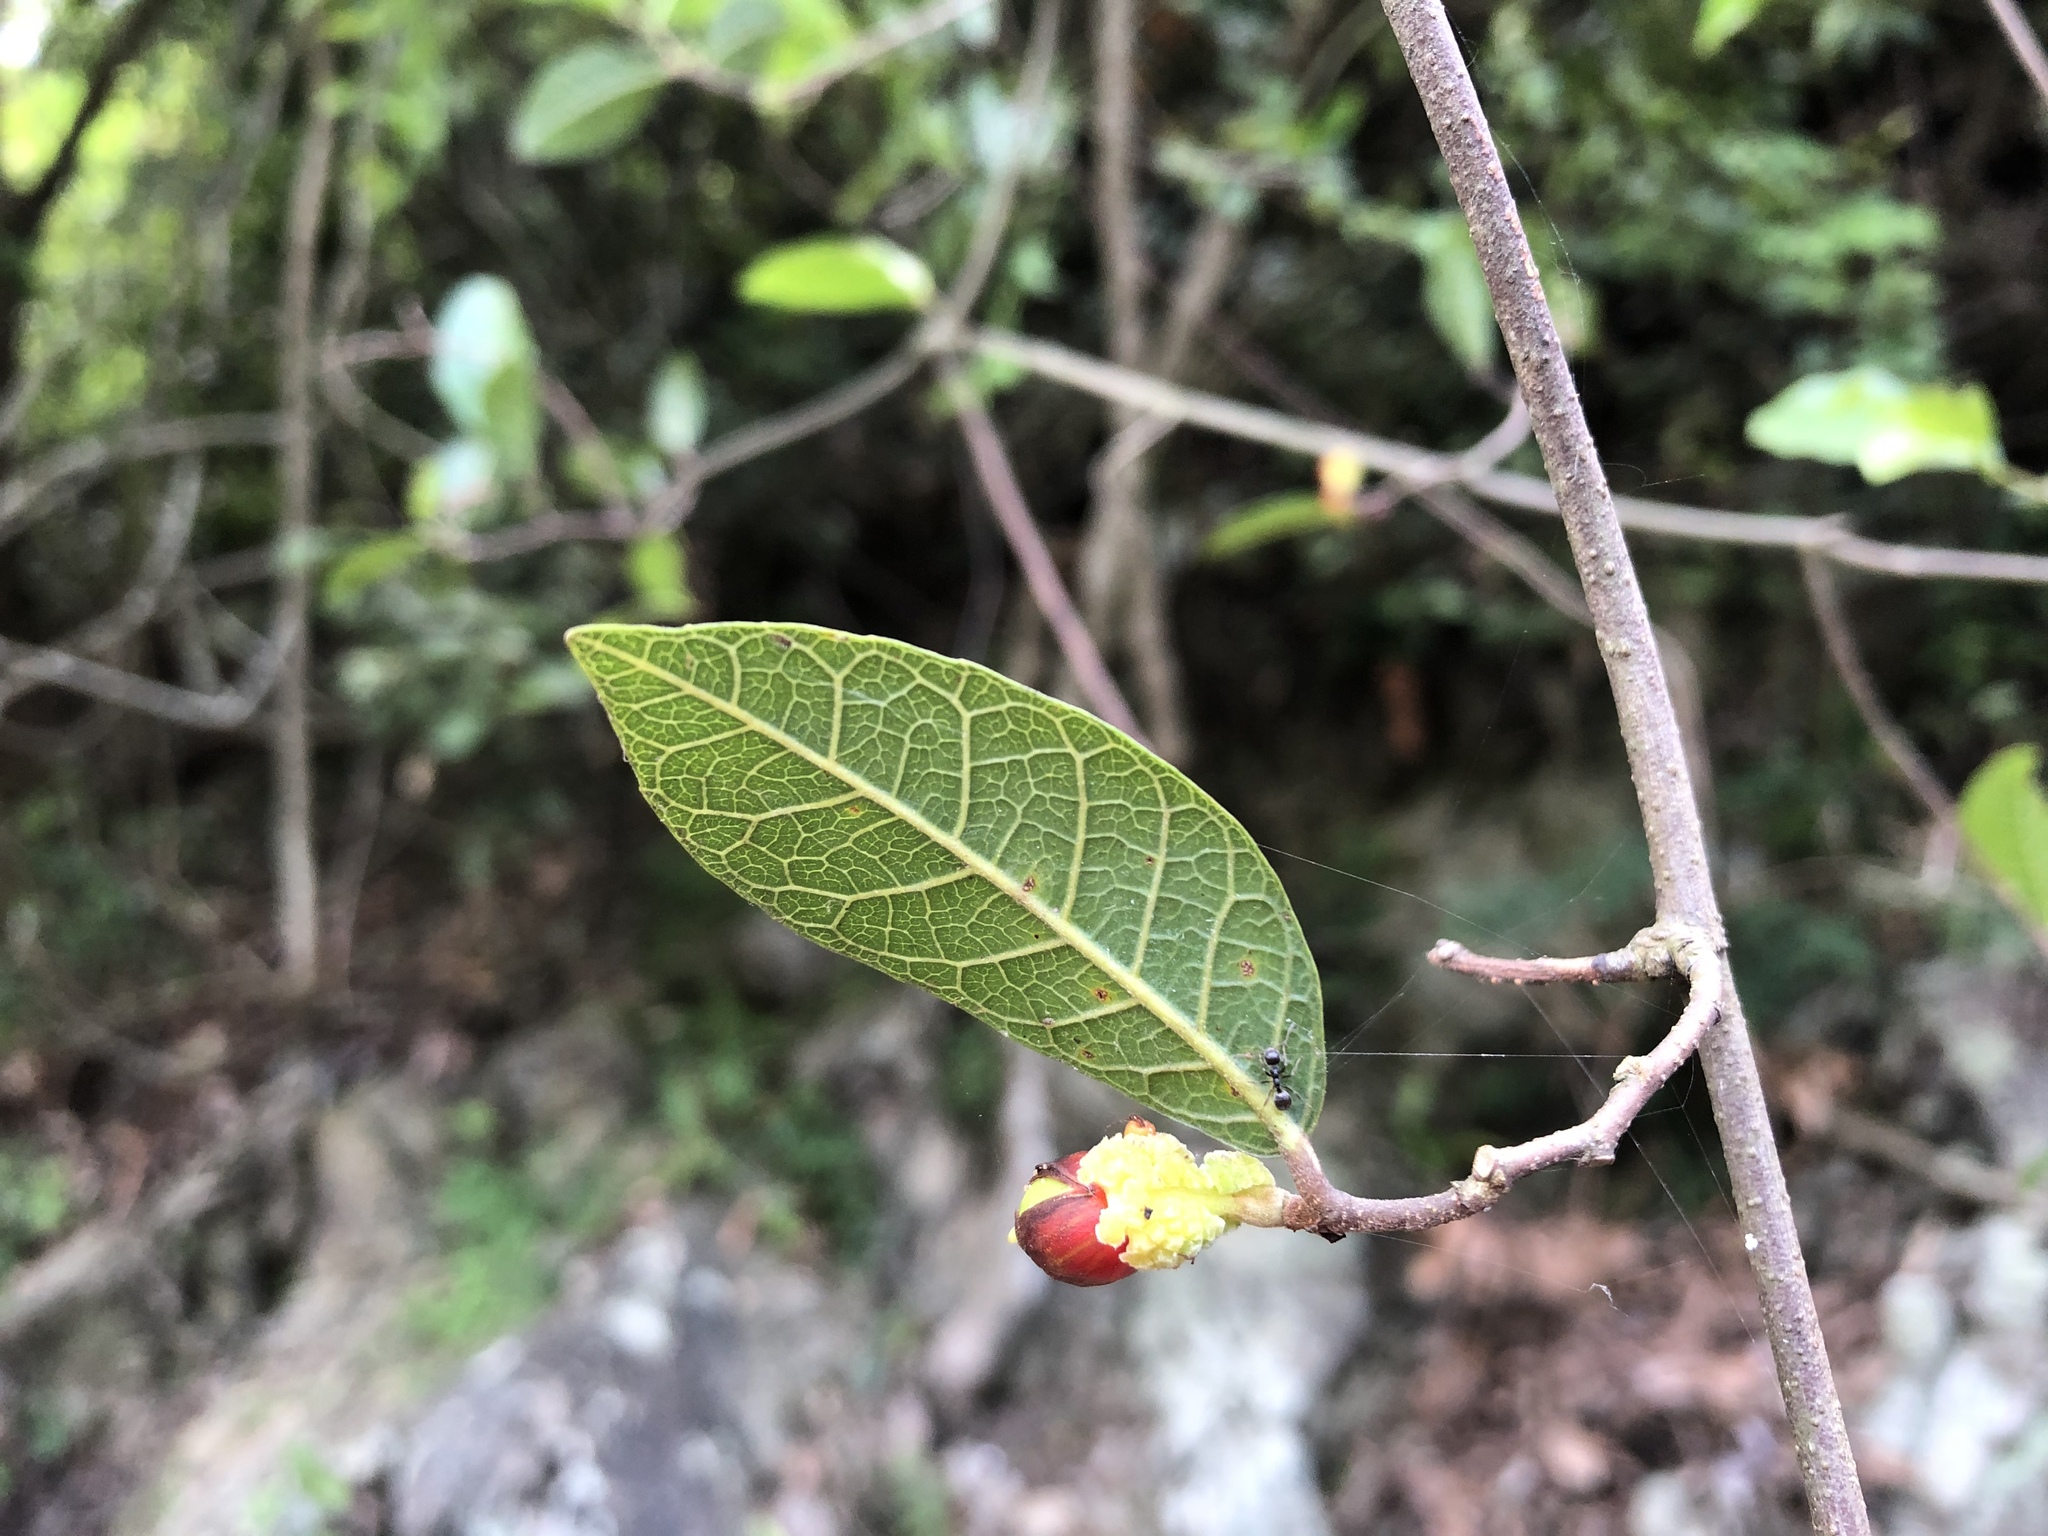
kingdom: Plantae
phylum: Tracheophyta
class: Magnoliopsida
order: Rosales
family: Moraceae
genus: Malaisia
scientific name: Malaisia scandens
